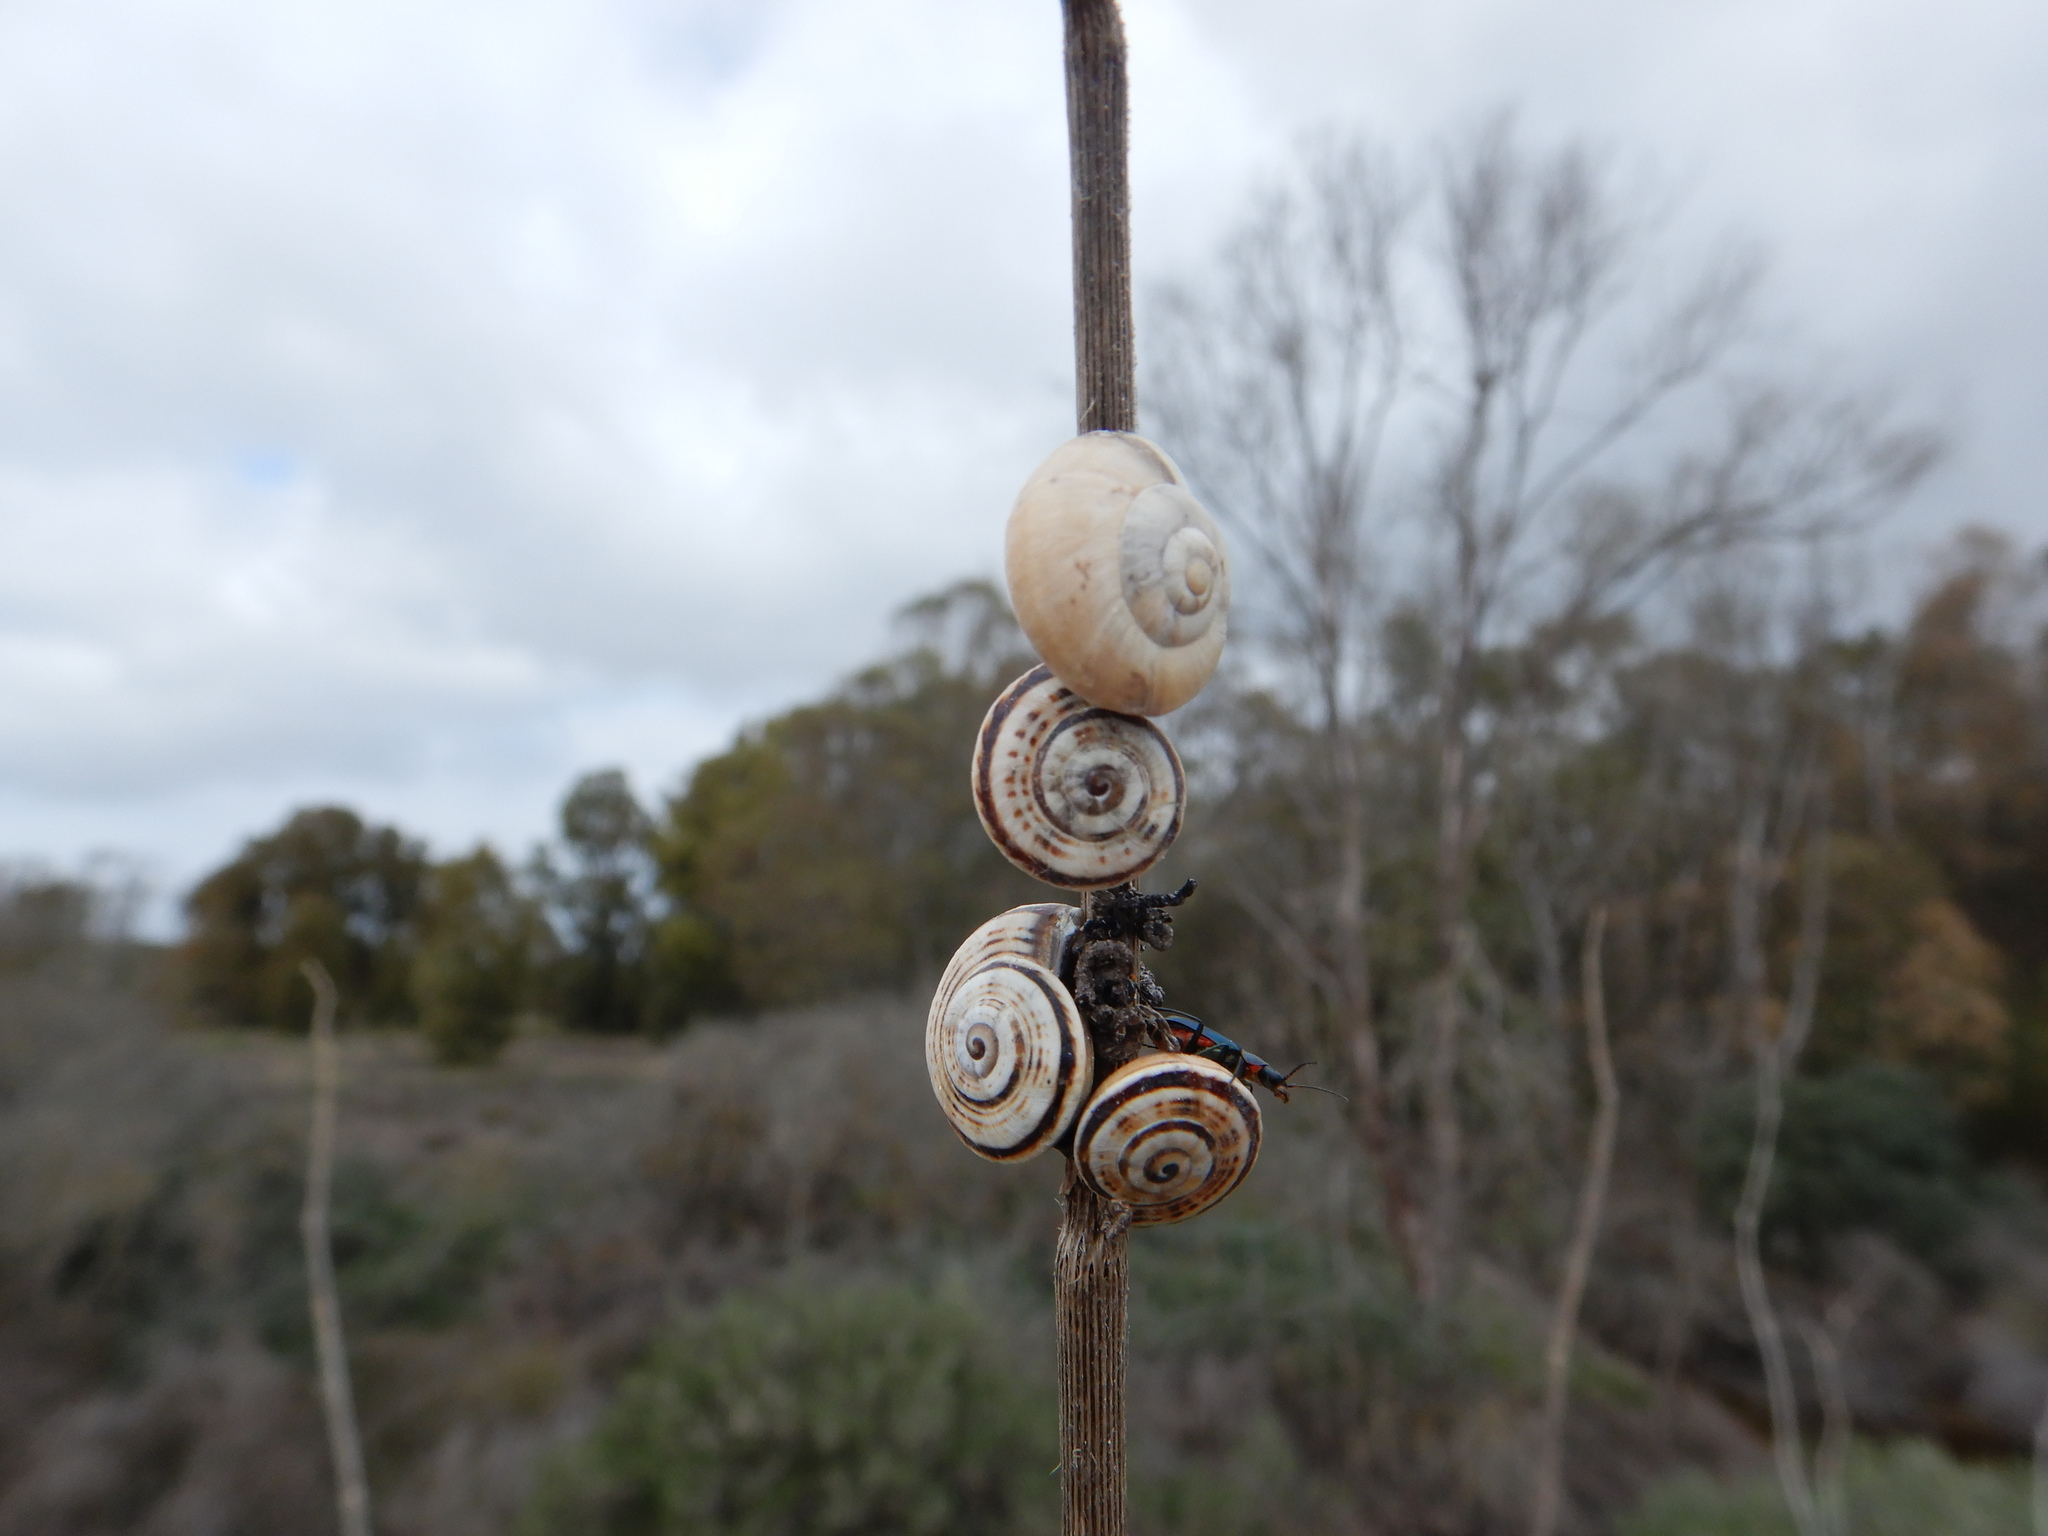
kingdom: Animalia
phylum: Mollusca
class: Gastropoda
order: Stylommatophora
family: Helicidae
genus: Theba
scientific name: Theba pisana
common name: White snail
